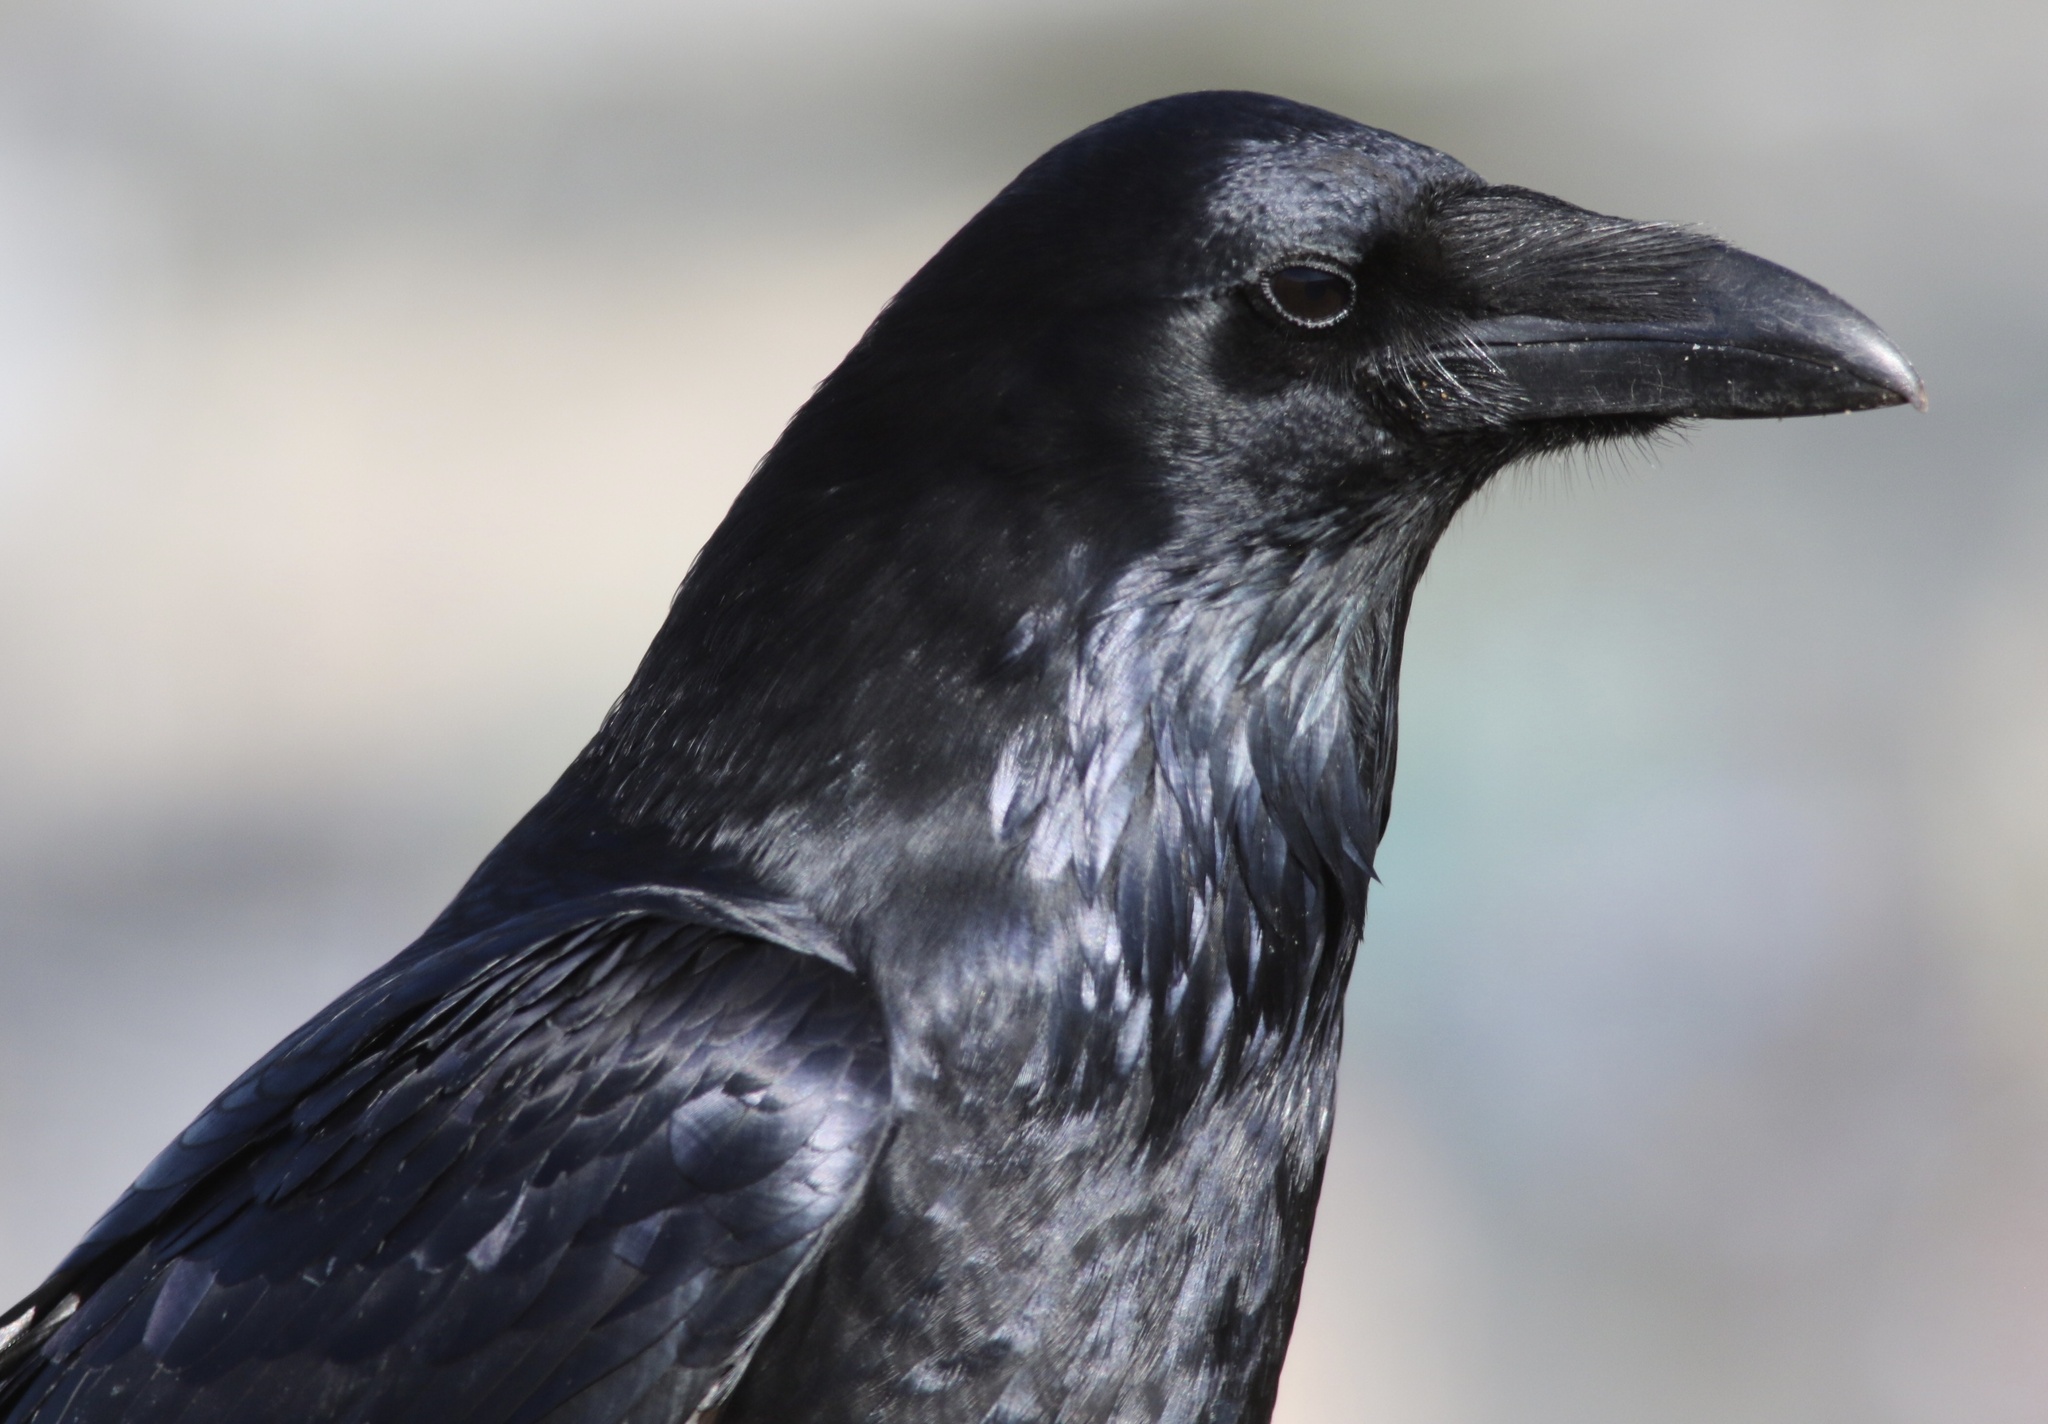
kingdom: Animalia
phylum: Chordata
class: Aves
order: Passeriformes
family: Corvidae
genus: Corvus
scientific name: Corvus corax
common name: Common raven
